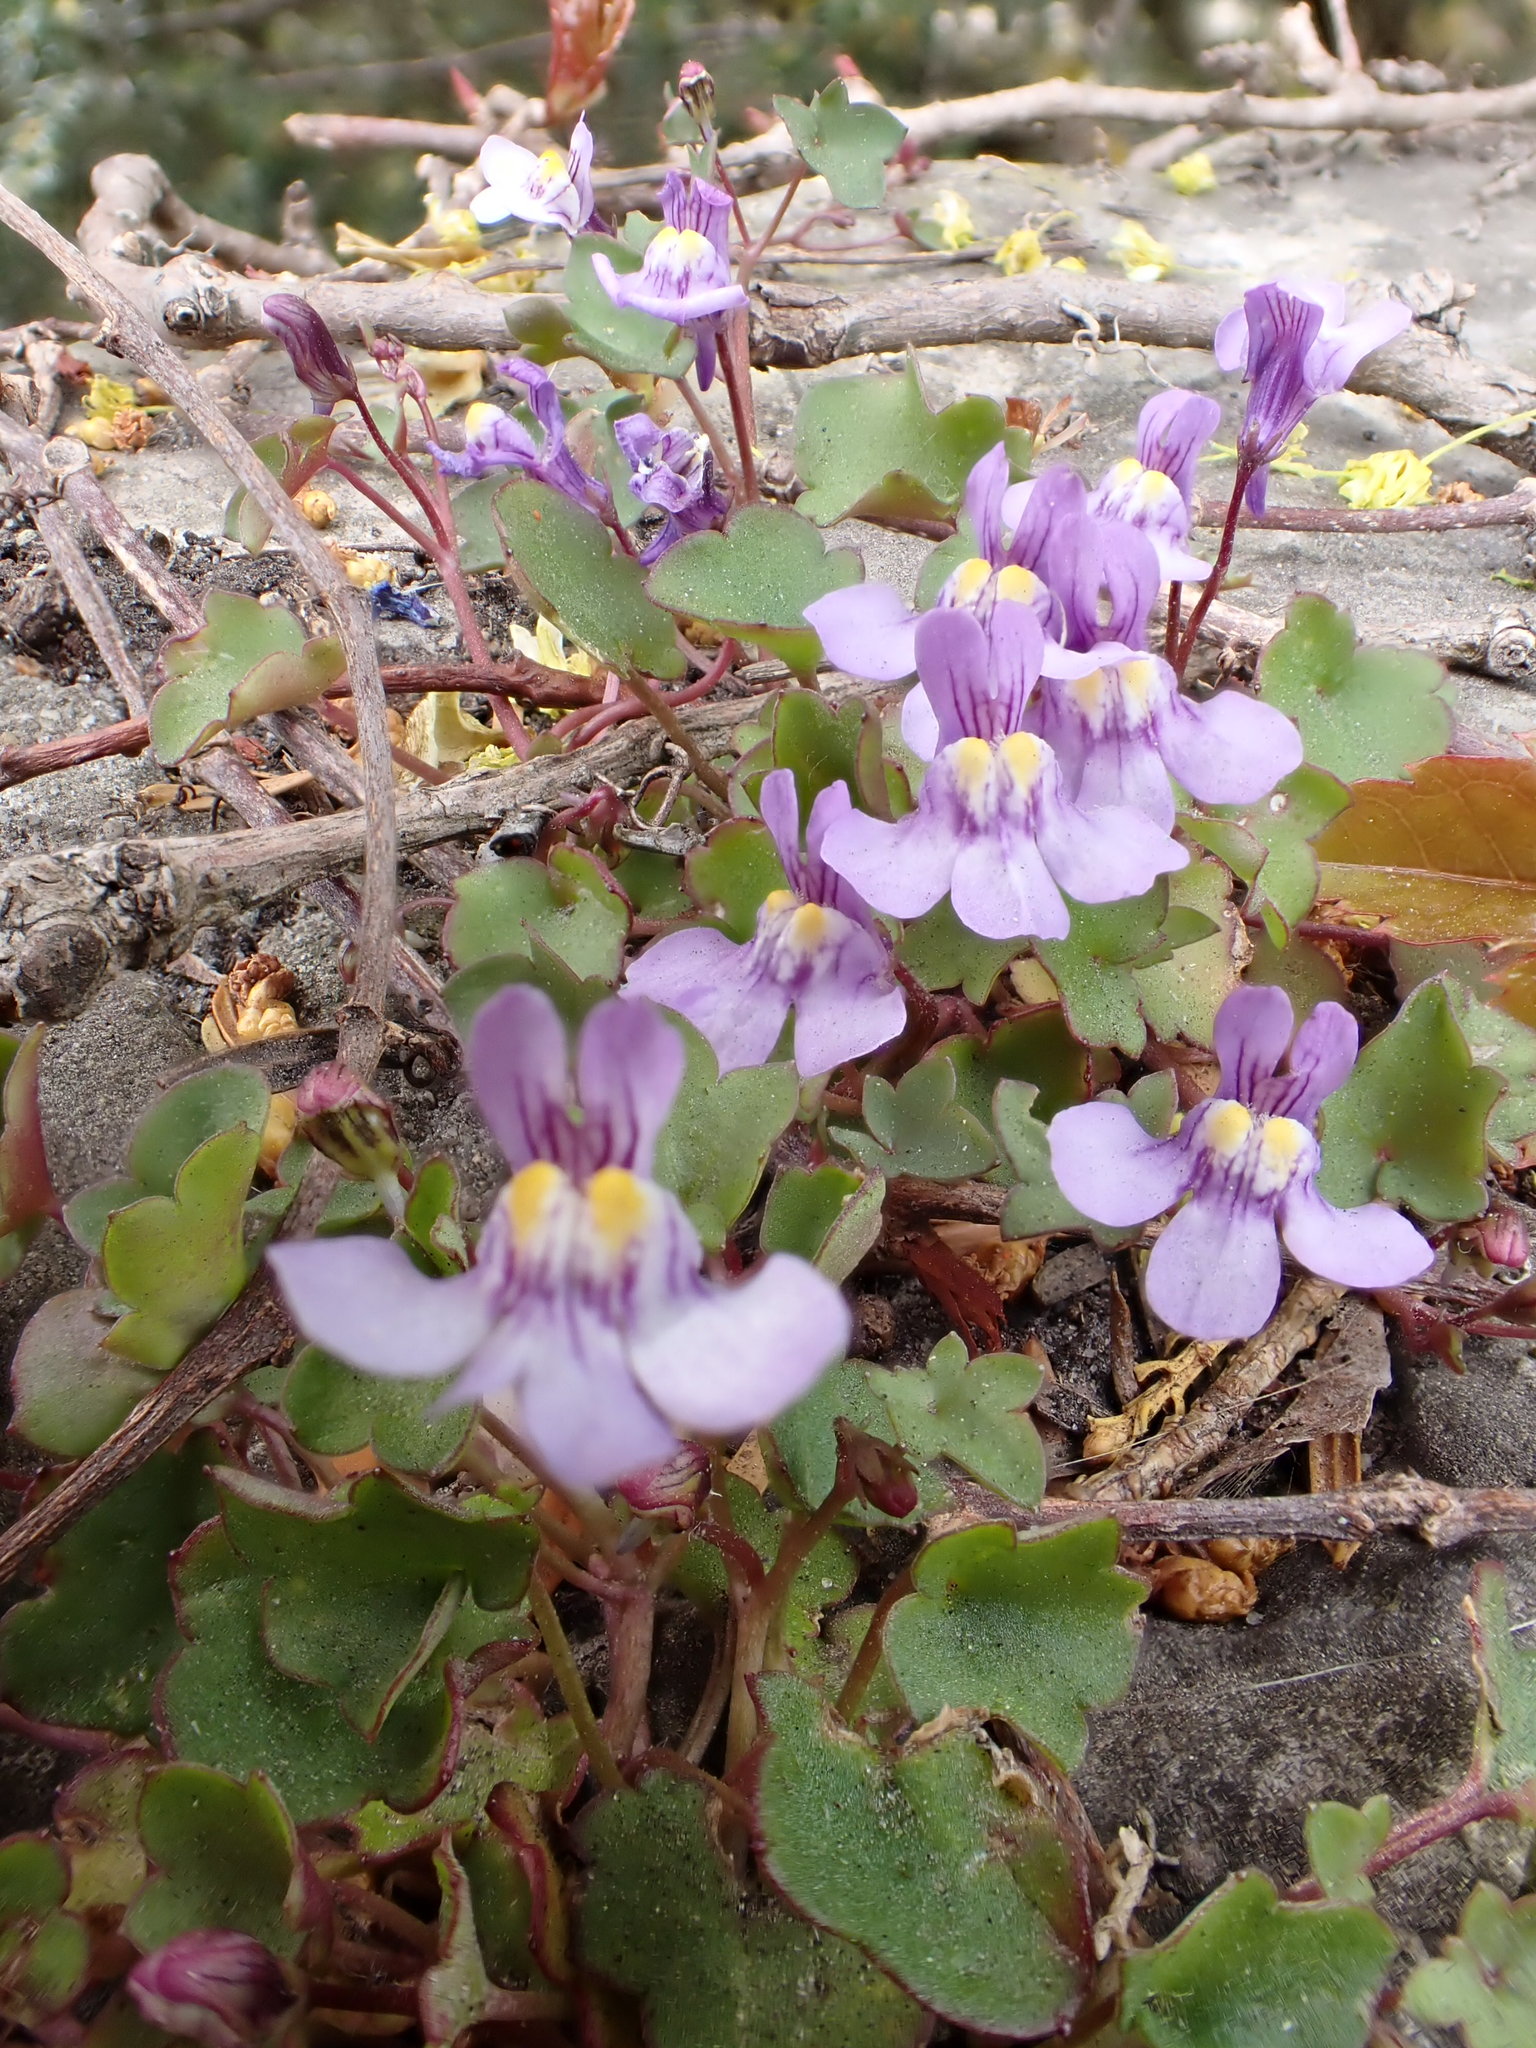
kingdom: Plantae
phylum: Tracheophyta
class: Magnoliopsida
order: Lamiales
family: Plantaginaceae
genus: Cymbalaria
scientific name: Cymbalaria muralis
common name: Ivy-leaved toadflax
